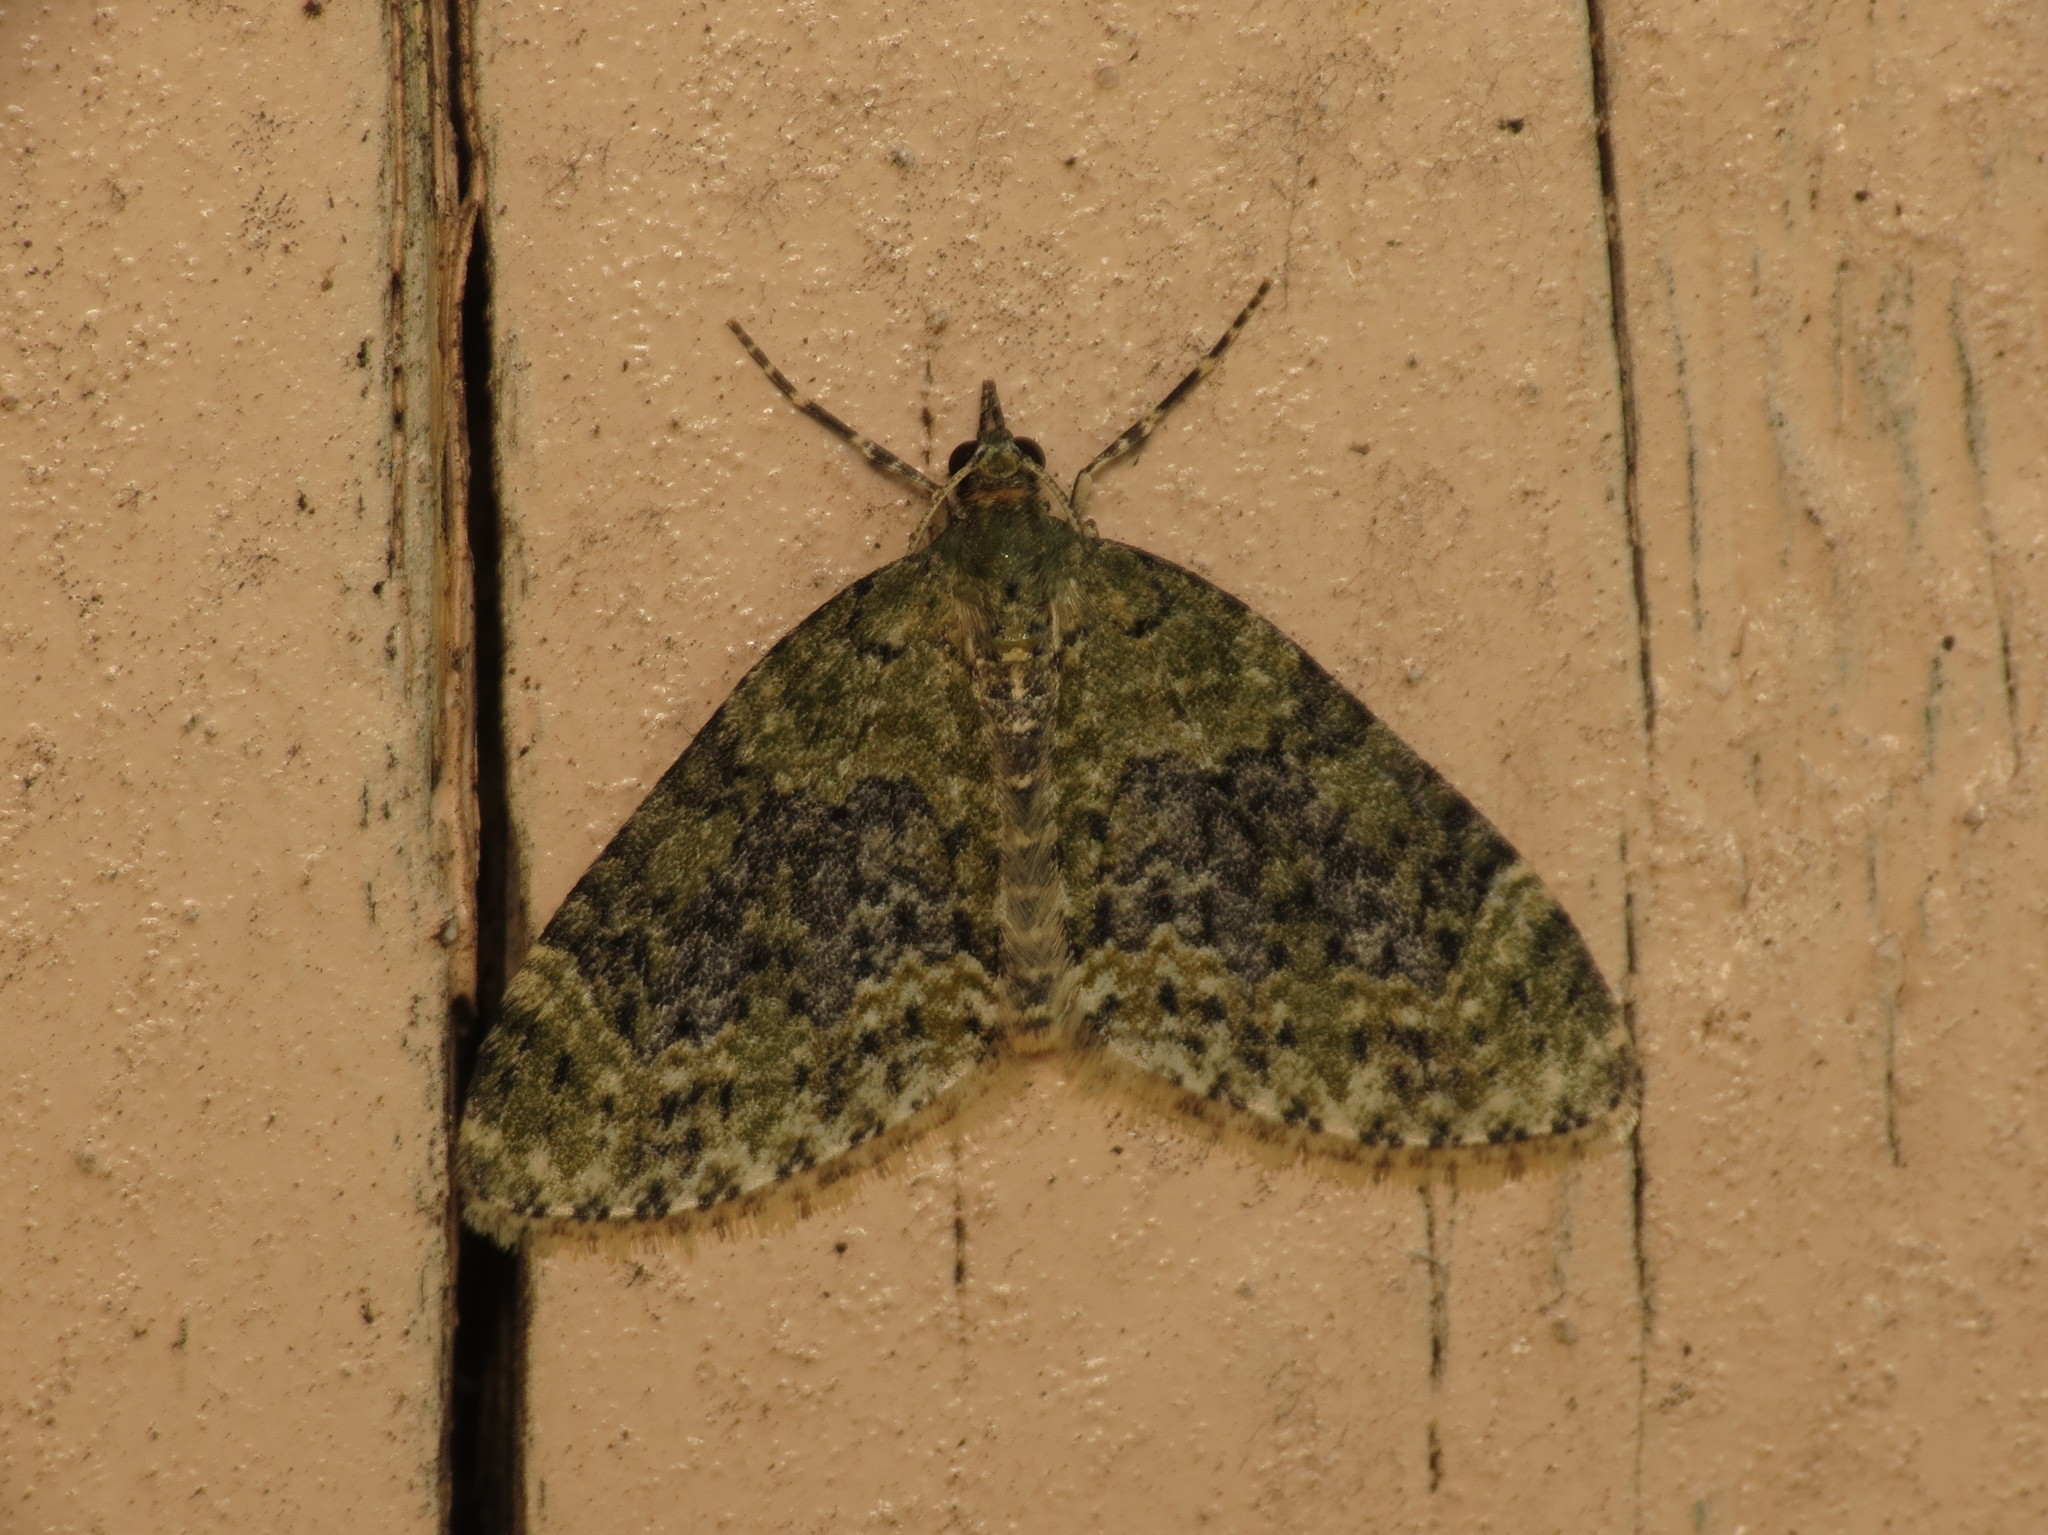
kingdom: Animalia
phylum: Arthropoda
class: Insecta
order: Lepidoptera
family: Geometridae
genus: Acasis
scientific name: Acasis viretata
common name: Yellow-barred brindle
